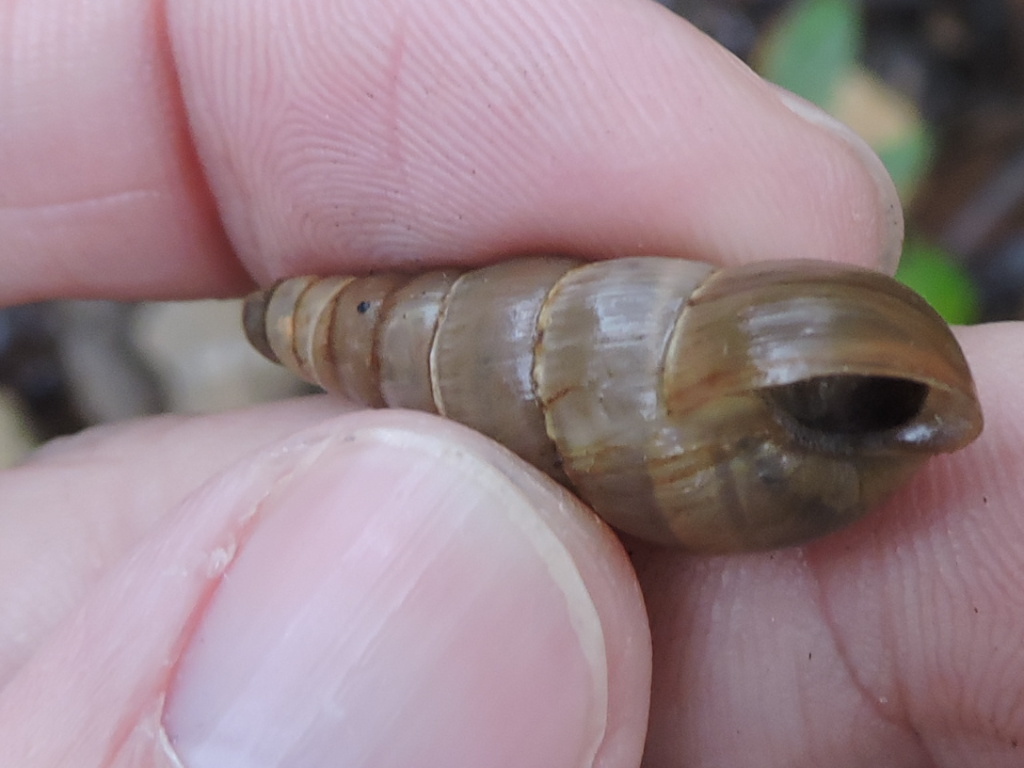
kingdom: Animalia
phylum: Mollusca
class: Gastropoda
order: Stylommatophora
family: Achatinidae
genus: Rumina
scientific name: Rumina decollata
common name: Decollate snail
